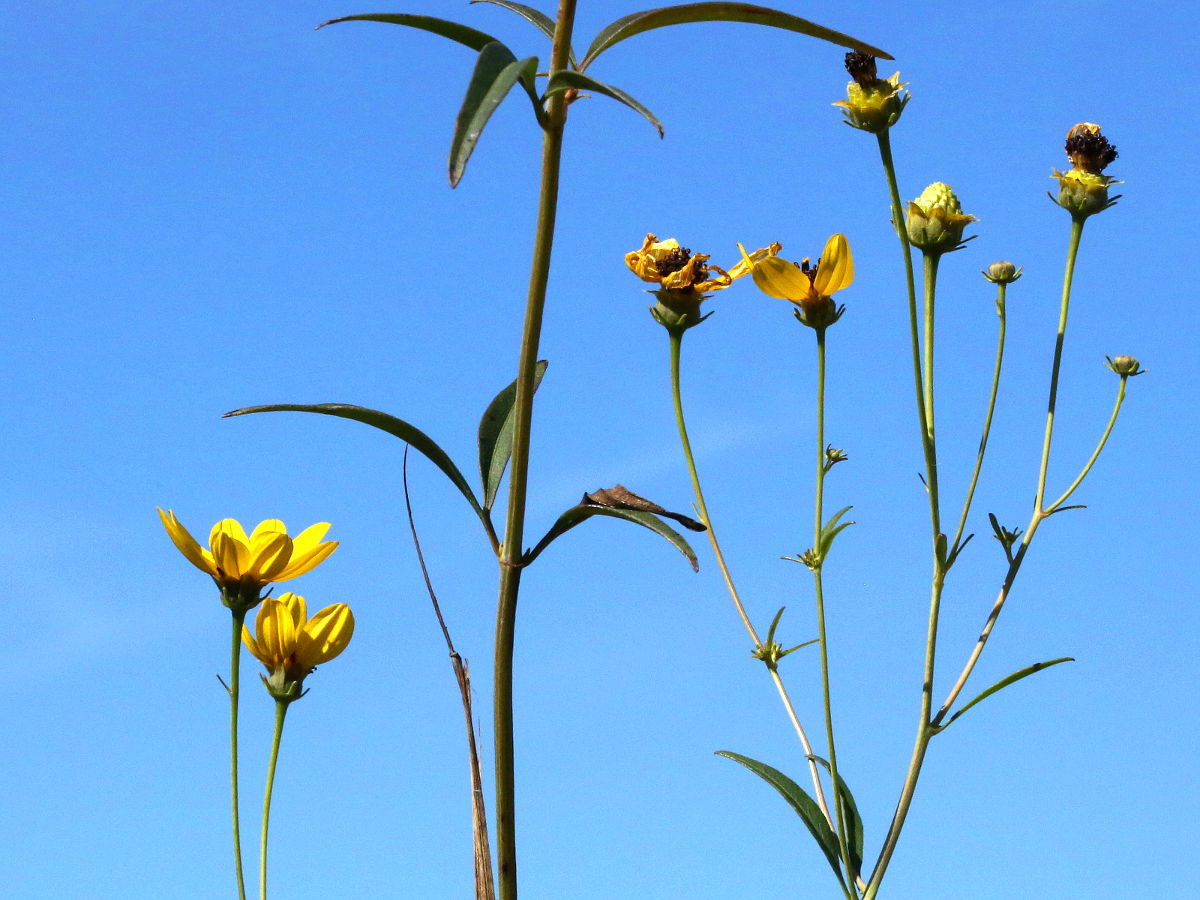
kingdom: Plantae
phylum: Tracheophyta
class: Magnoliopsida
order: Asterales
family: Asteraceae
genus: Coreopsis
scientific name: Coreopsis tripteris
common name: Tall coreopsis
